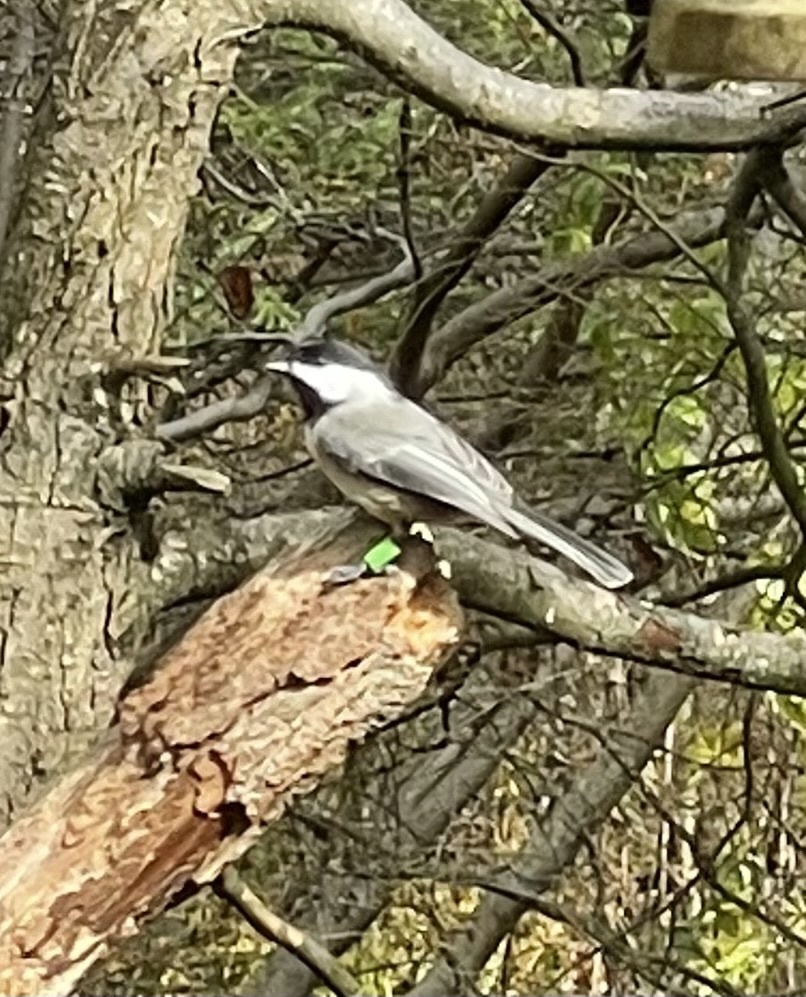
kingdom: Animalia
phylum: Chordata
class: Aves
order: Passeriformes
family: Paridae
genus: Poecile
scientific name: Poecile carolinensis
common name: Carolina chickadee
